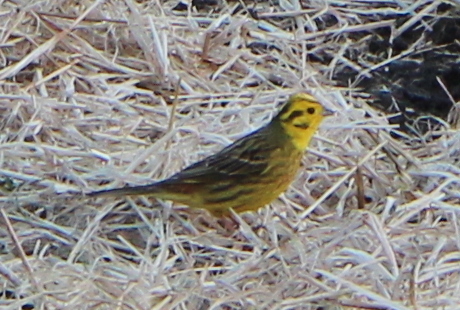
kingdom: Animalia
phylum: Chordata
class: Aves
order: Passeriformes
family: Emberizidae
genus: Emberiza
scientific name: Emberiza citrinella
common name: Yellowhammer
